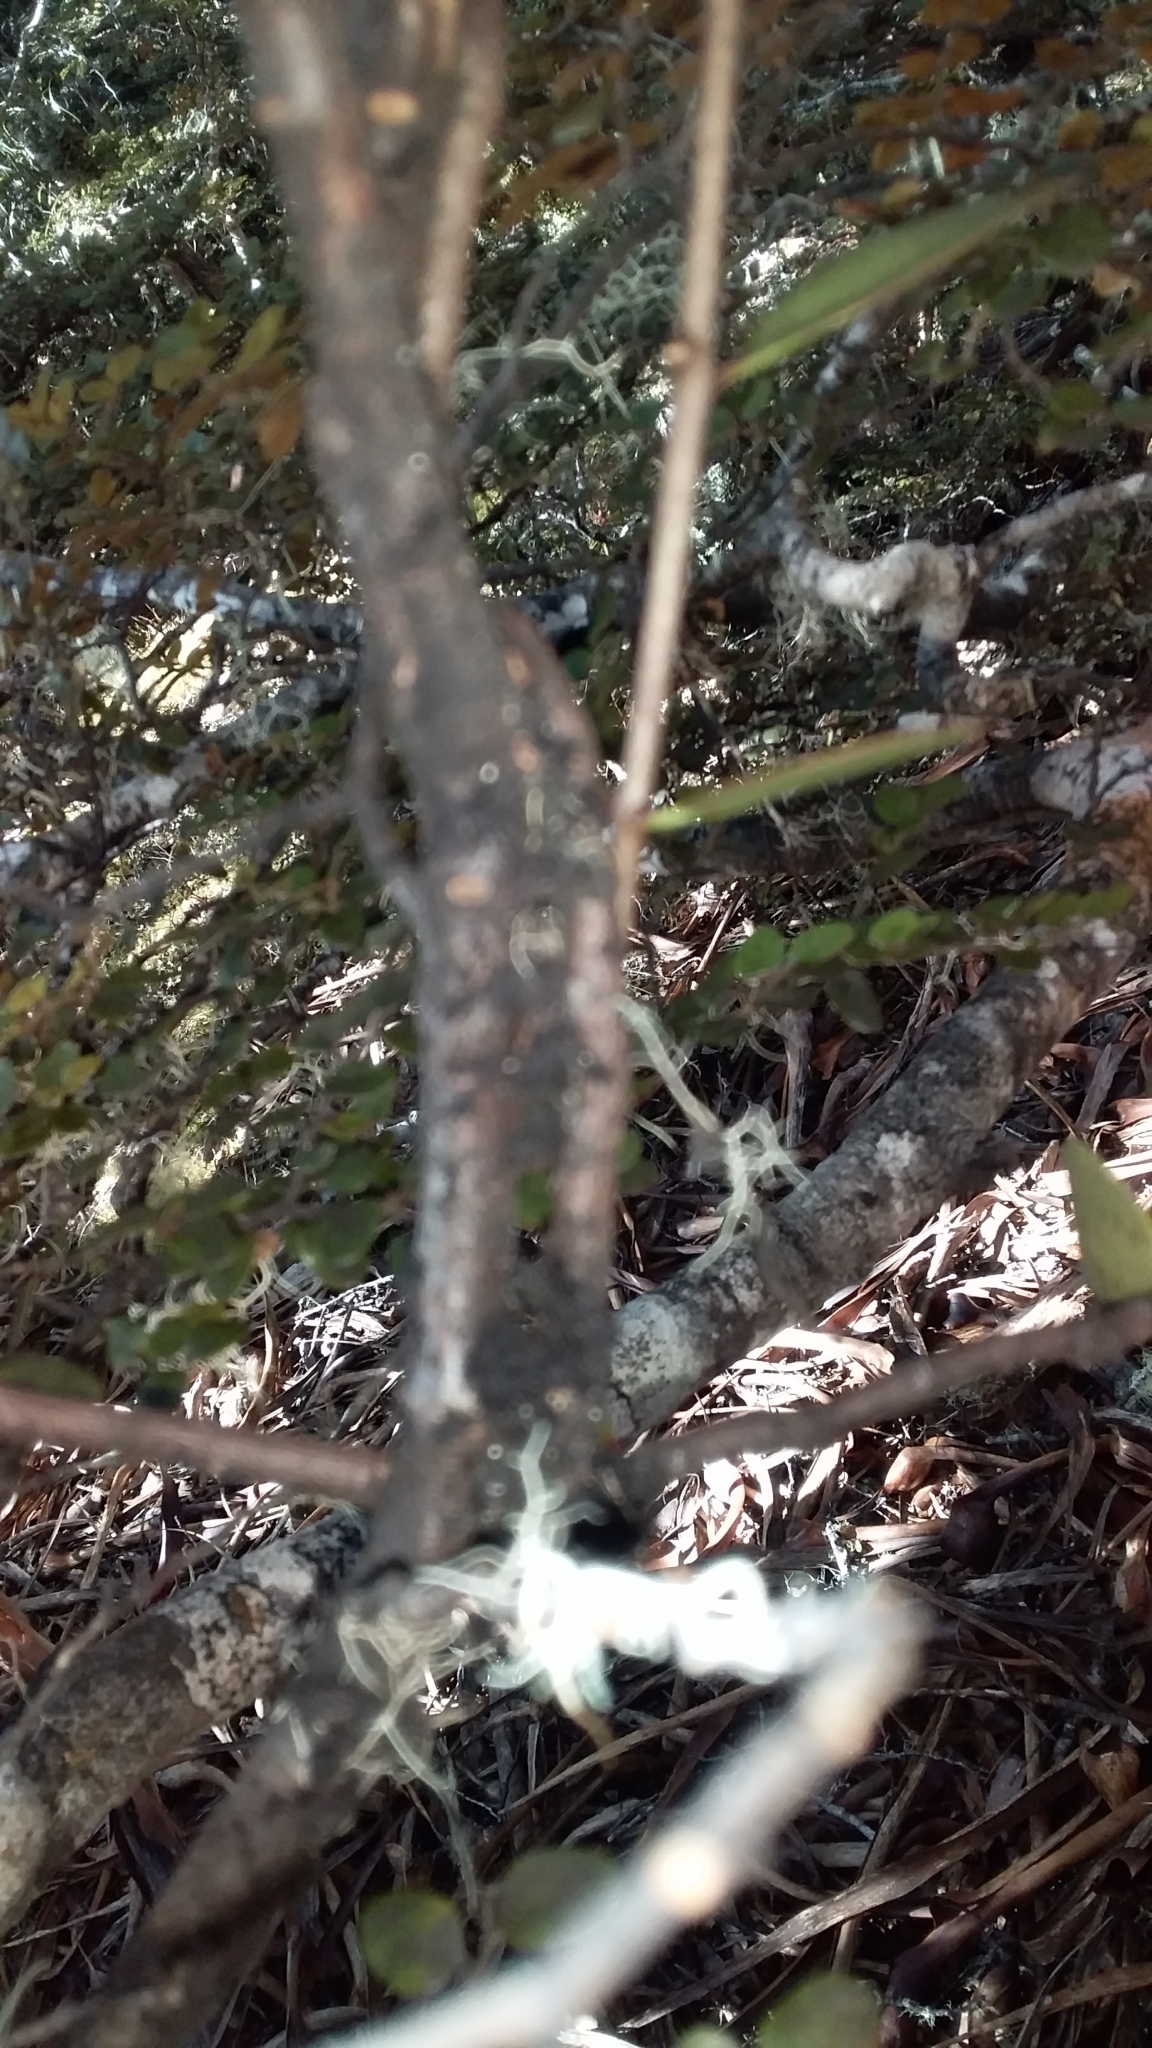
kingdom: Plantae
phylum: Tracheophyta
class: Magnoliopsida
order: Santalales
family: Loranthaceae
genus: Alepis
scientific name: Alepis flavida
